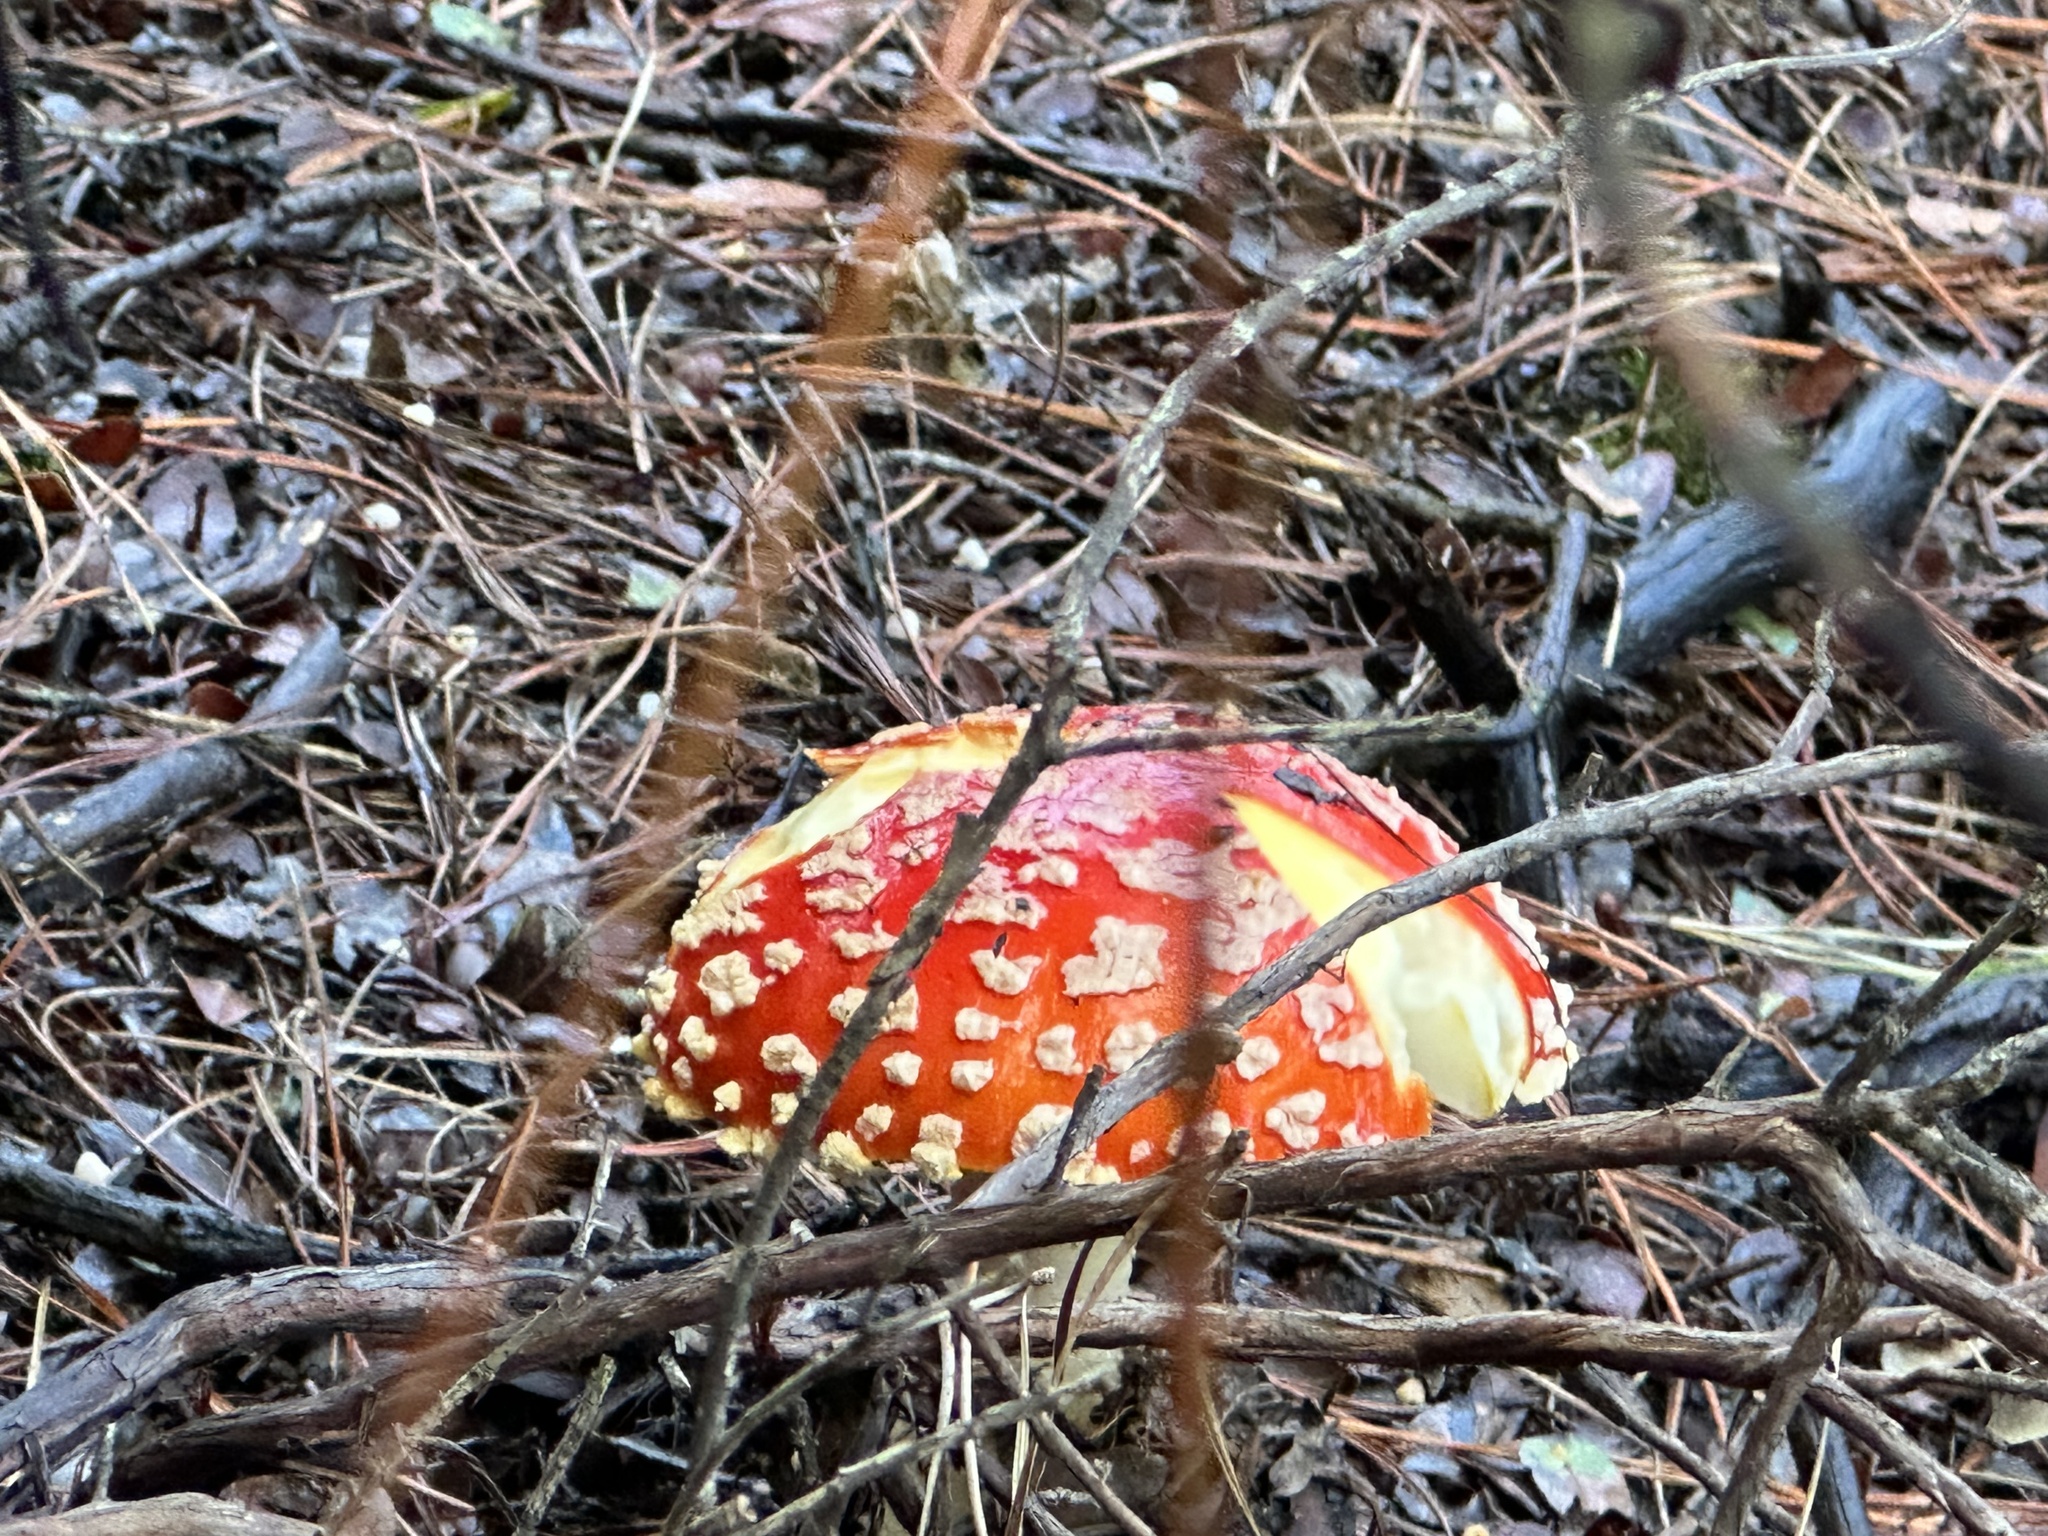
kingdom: Fungi
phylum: Basidiomycota
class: Agaricomycetes
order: Agaricales
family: Amanitaceae
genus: Amanita
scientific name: Amanita muscaria
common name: Fly agaric
